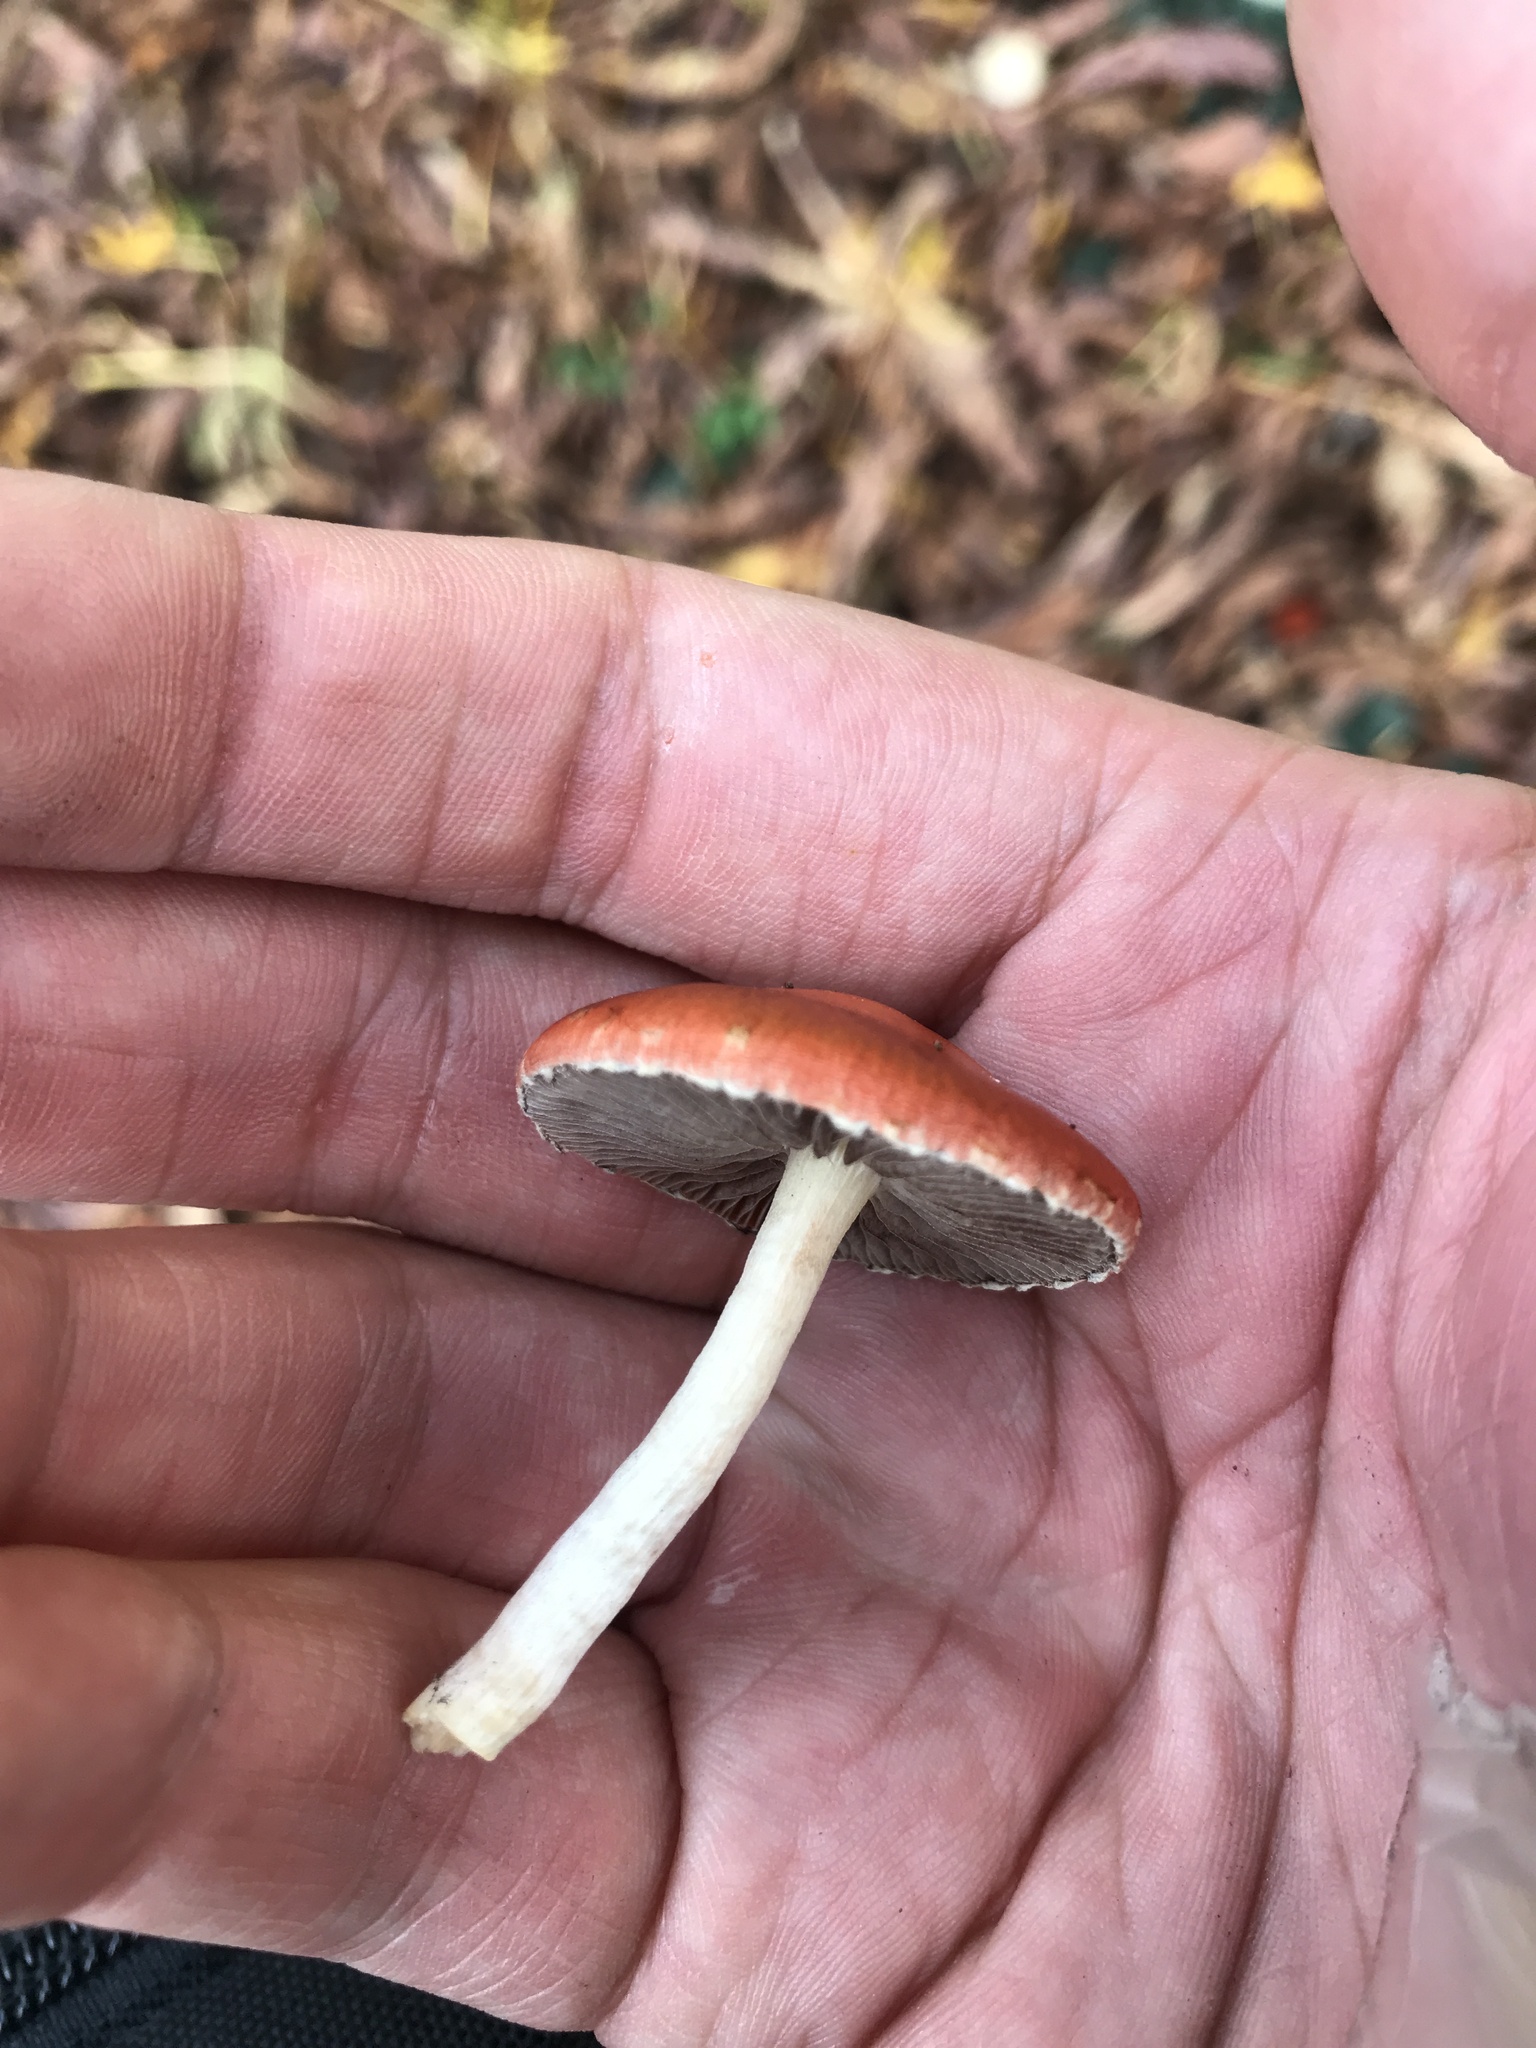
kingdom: Fungi
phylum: Basidiomycota
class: Agaricomycetes
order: Agaricales
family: Strophariaceae
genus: Leratiomyces
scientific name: Leratiomyces ceres
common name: Redlead roundhead
